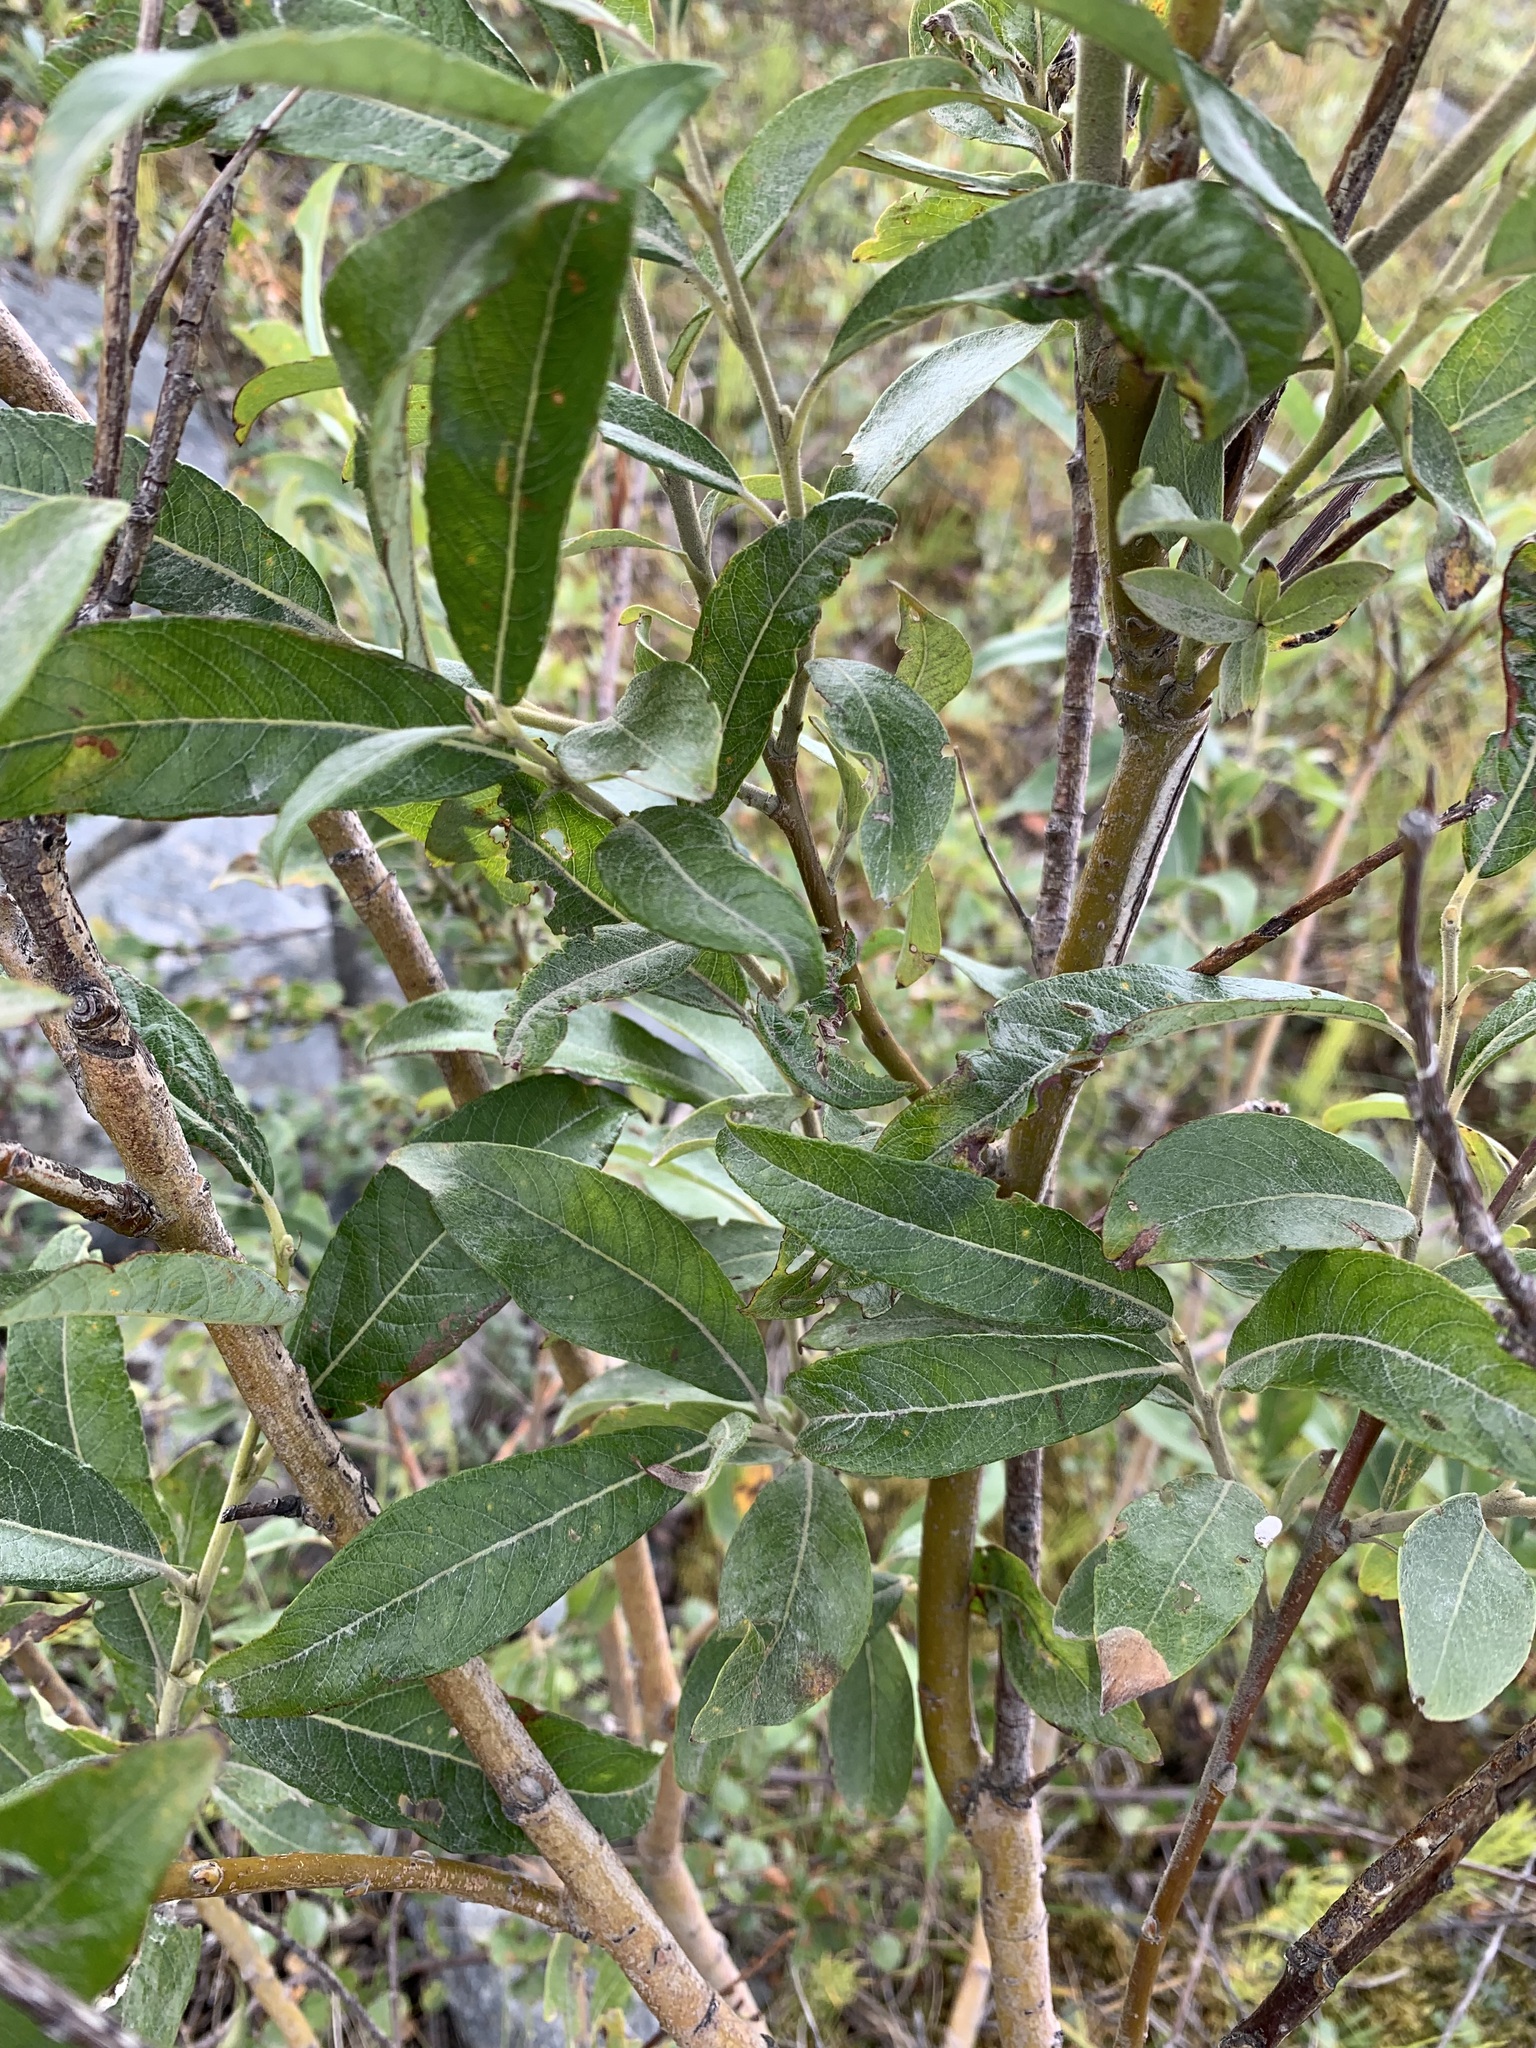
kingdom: Plantae
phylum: Tracheophyta
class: Magnoliopsida
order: Malpighiales
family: Salicaceae
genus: Salix
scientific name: Salix gmelinii
